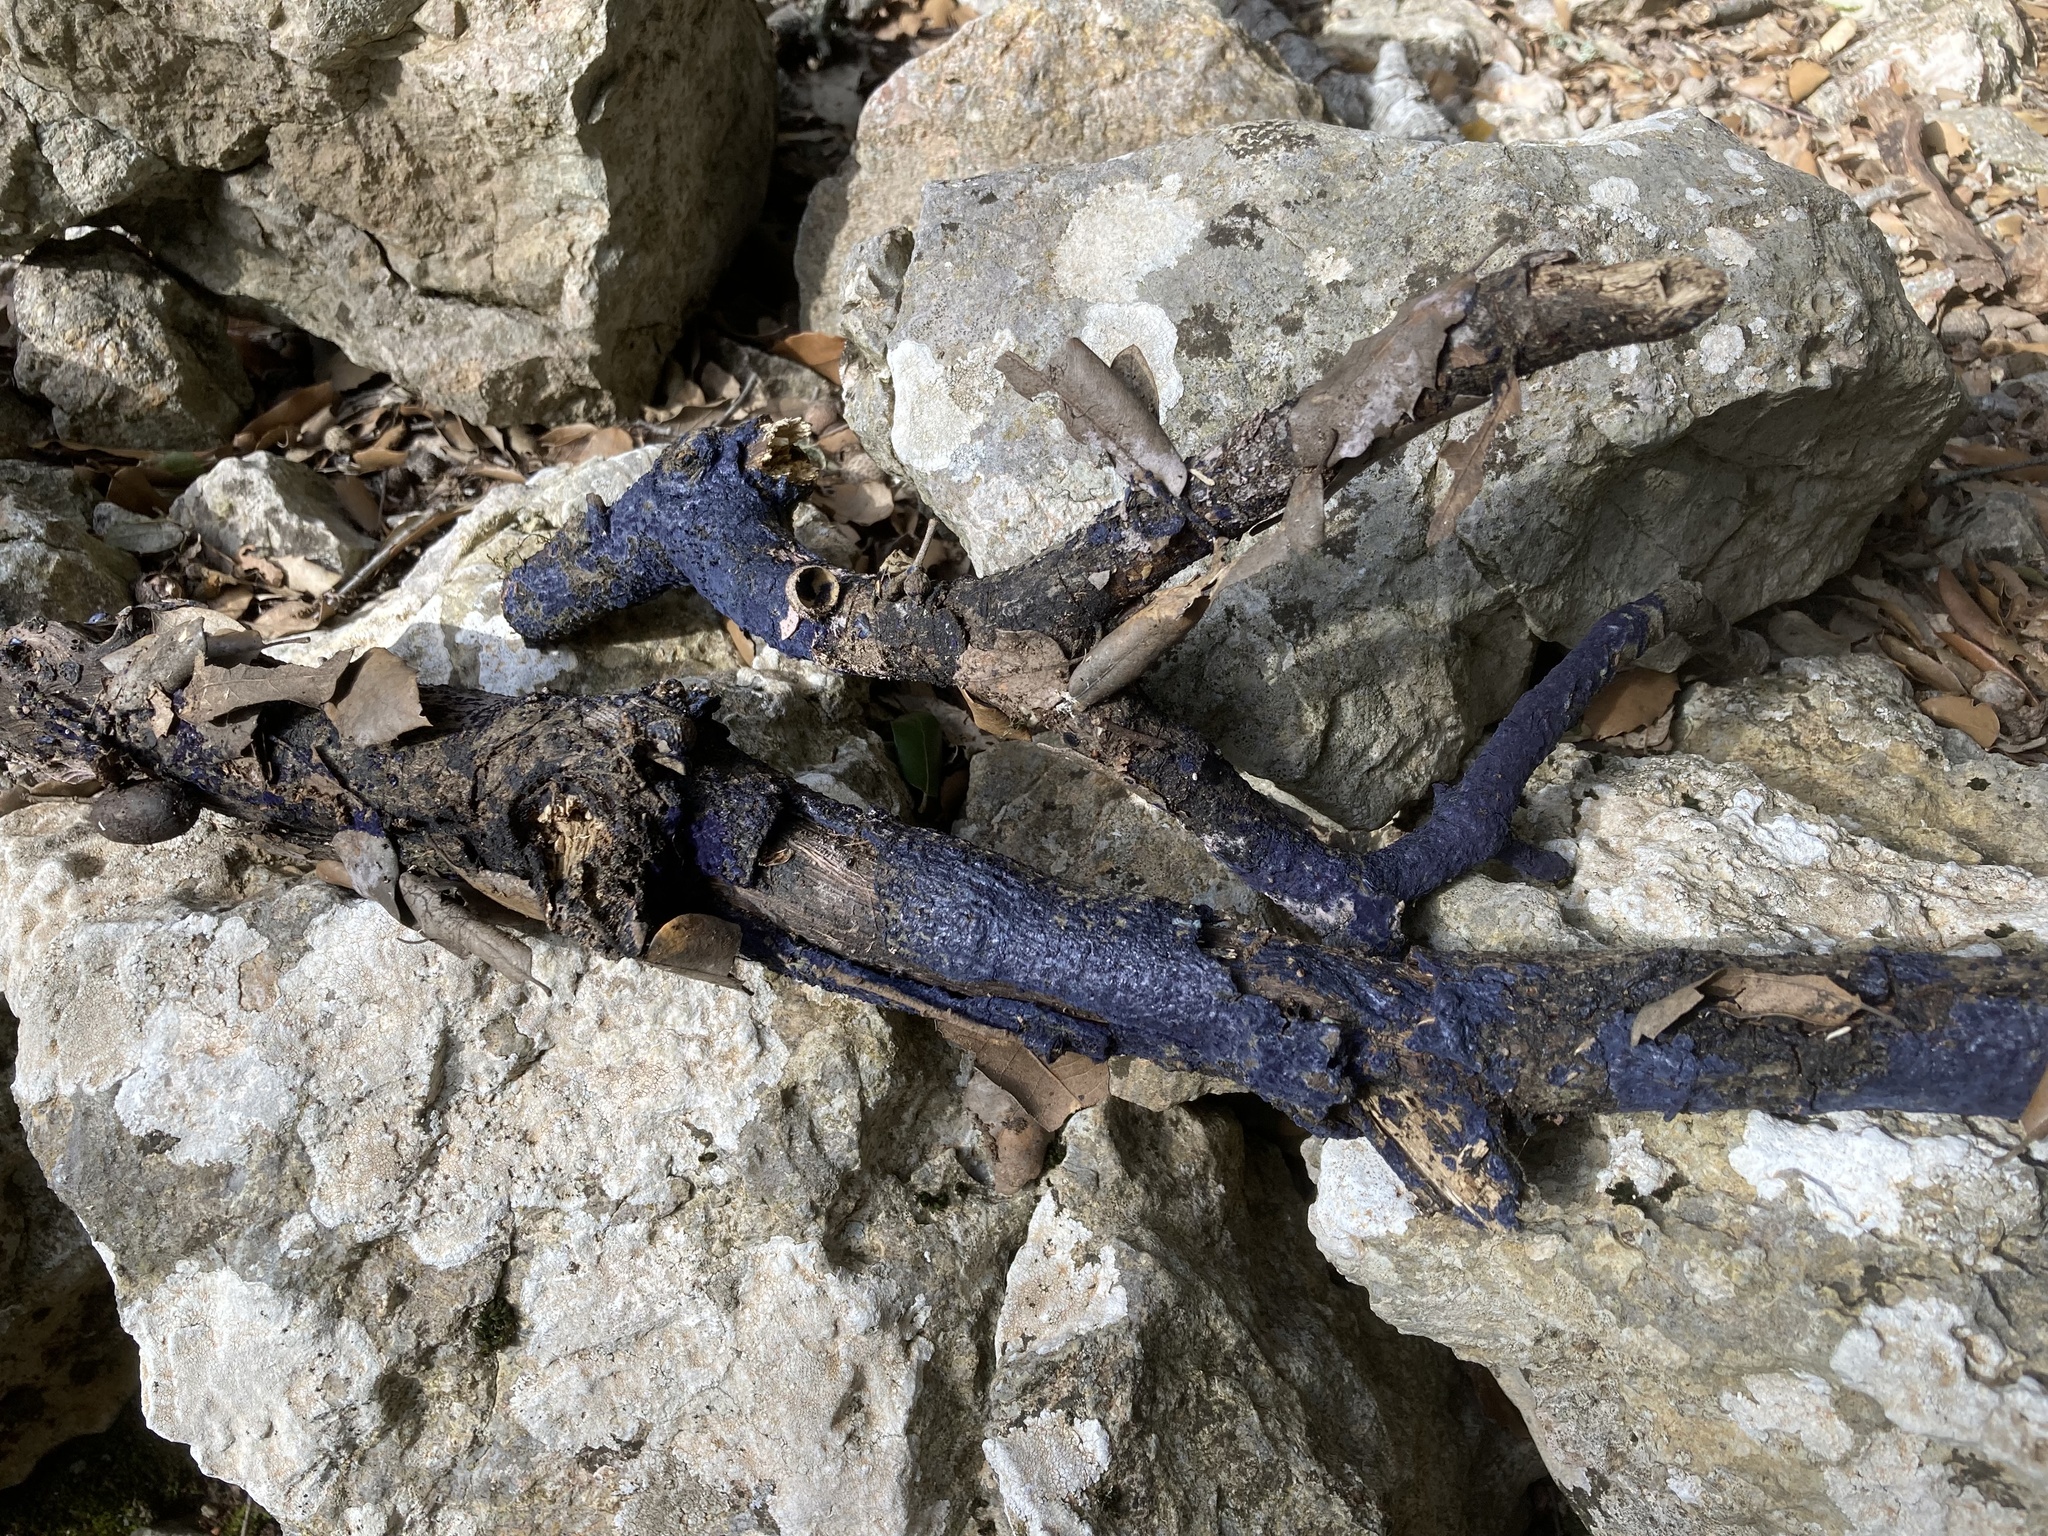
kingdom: Fungi
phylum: Basidiomycota
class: Agaricomycetes
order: Polyporales
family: Phanerochaetaceae
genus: Terana
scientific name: Terana coerulea
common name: Cobalt crust
